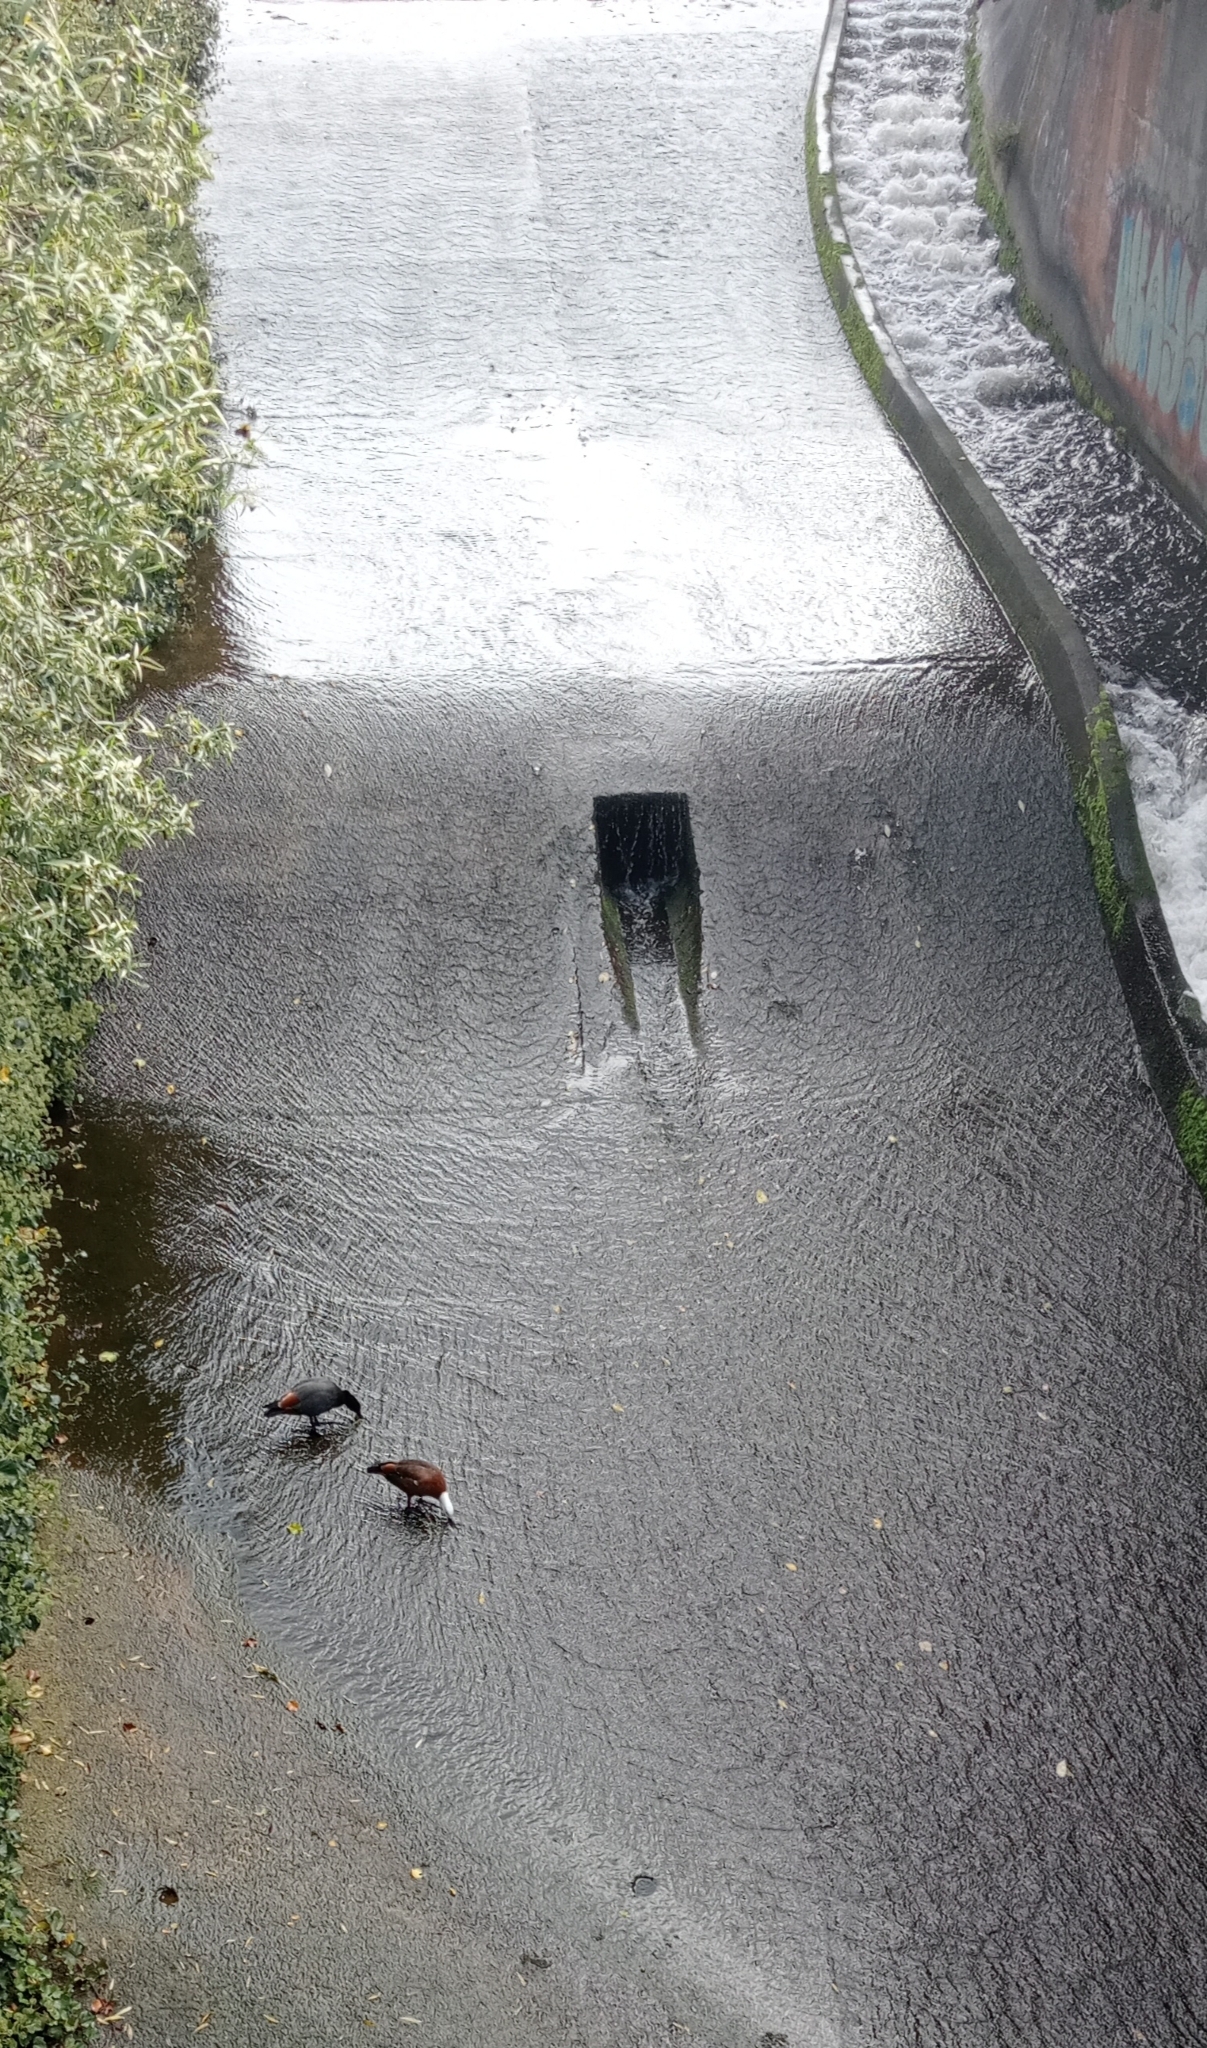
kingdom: Animalia
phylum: Chordata
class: Aves
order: Anseriformes
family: Anatidae
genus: Tadorna
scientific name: Tadorna variegata
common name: Paradise shelduck
